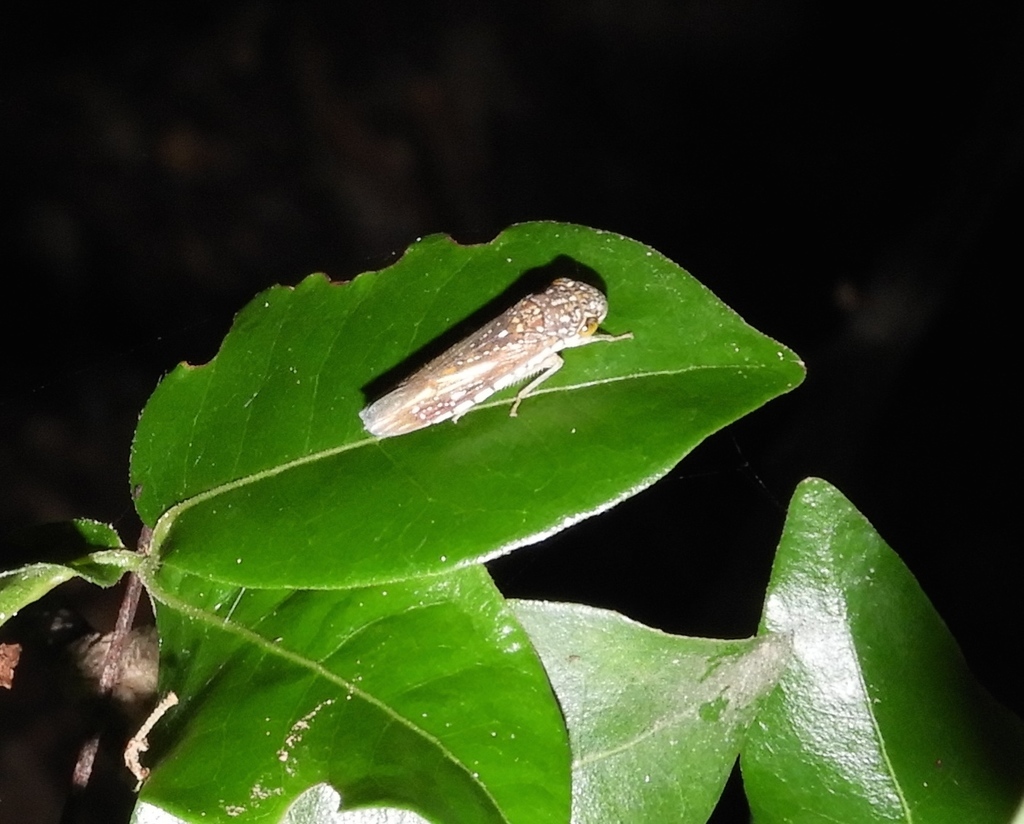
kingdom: Animalia
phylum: Arthropoda
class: Insecta
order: Hemiptera
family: Cicadellidae
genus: Egidemia
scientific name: Egidemia fowleri
